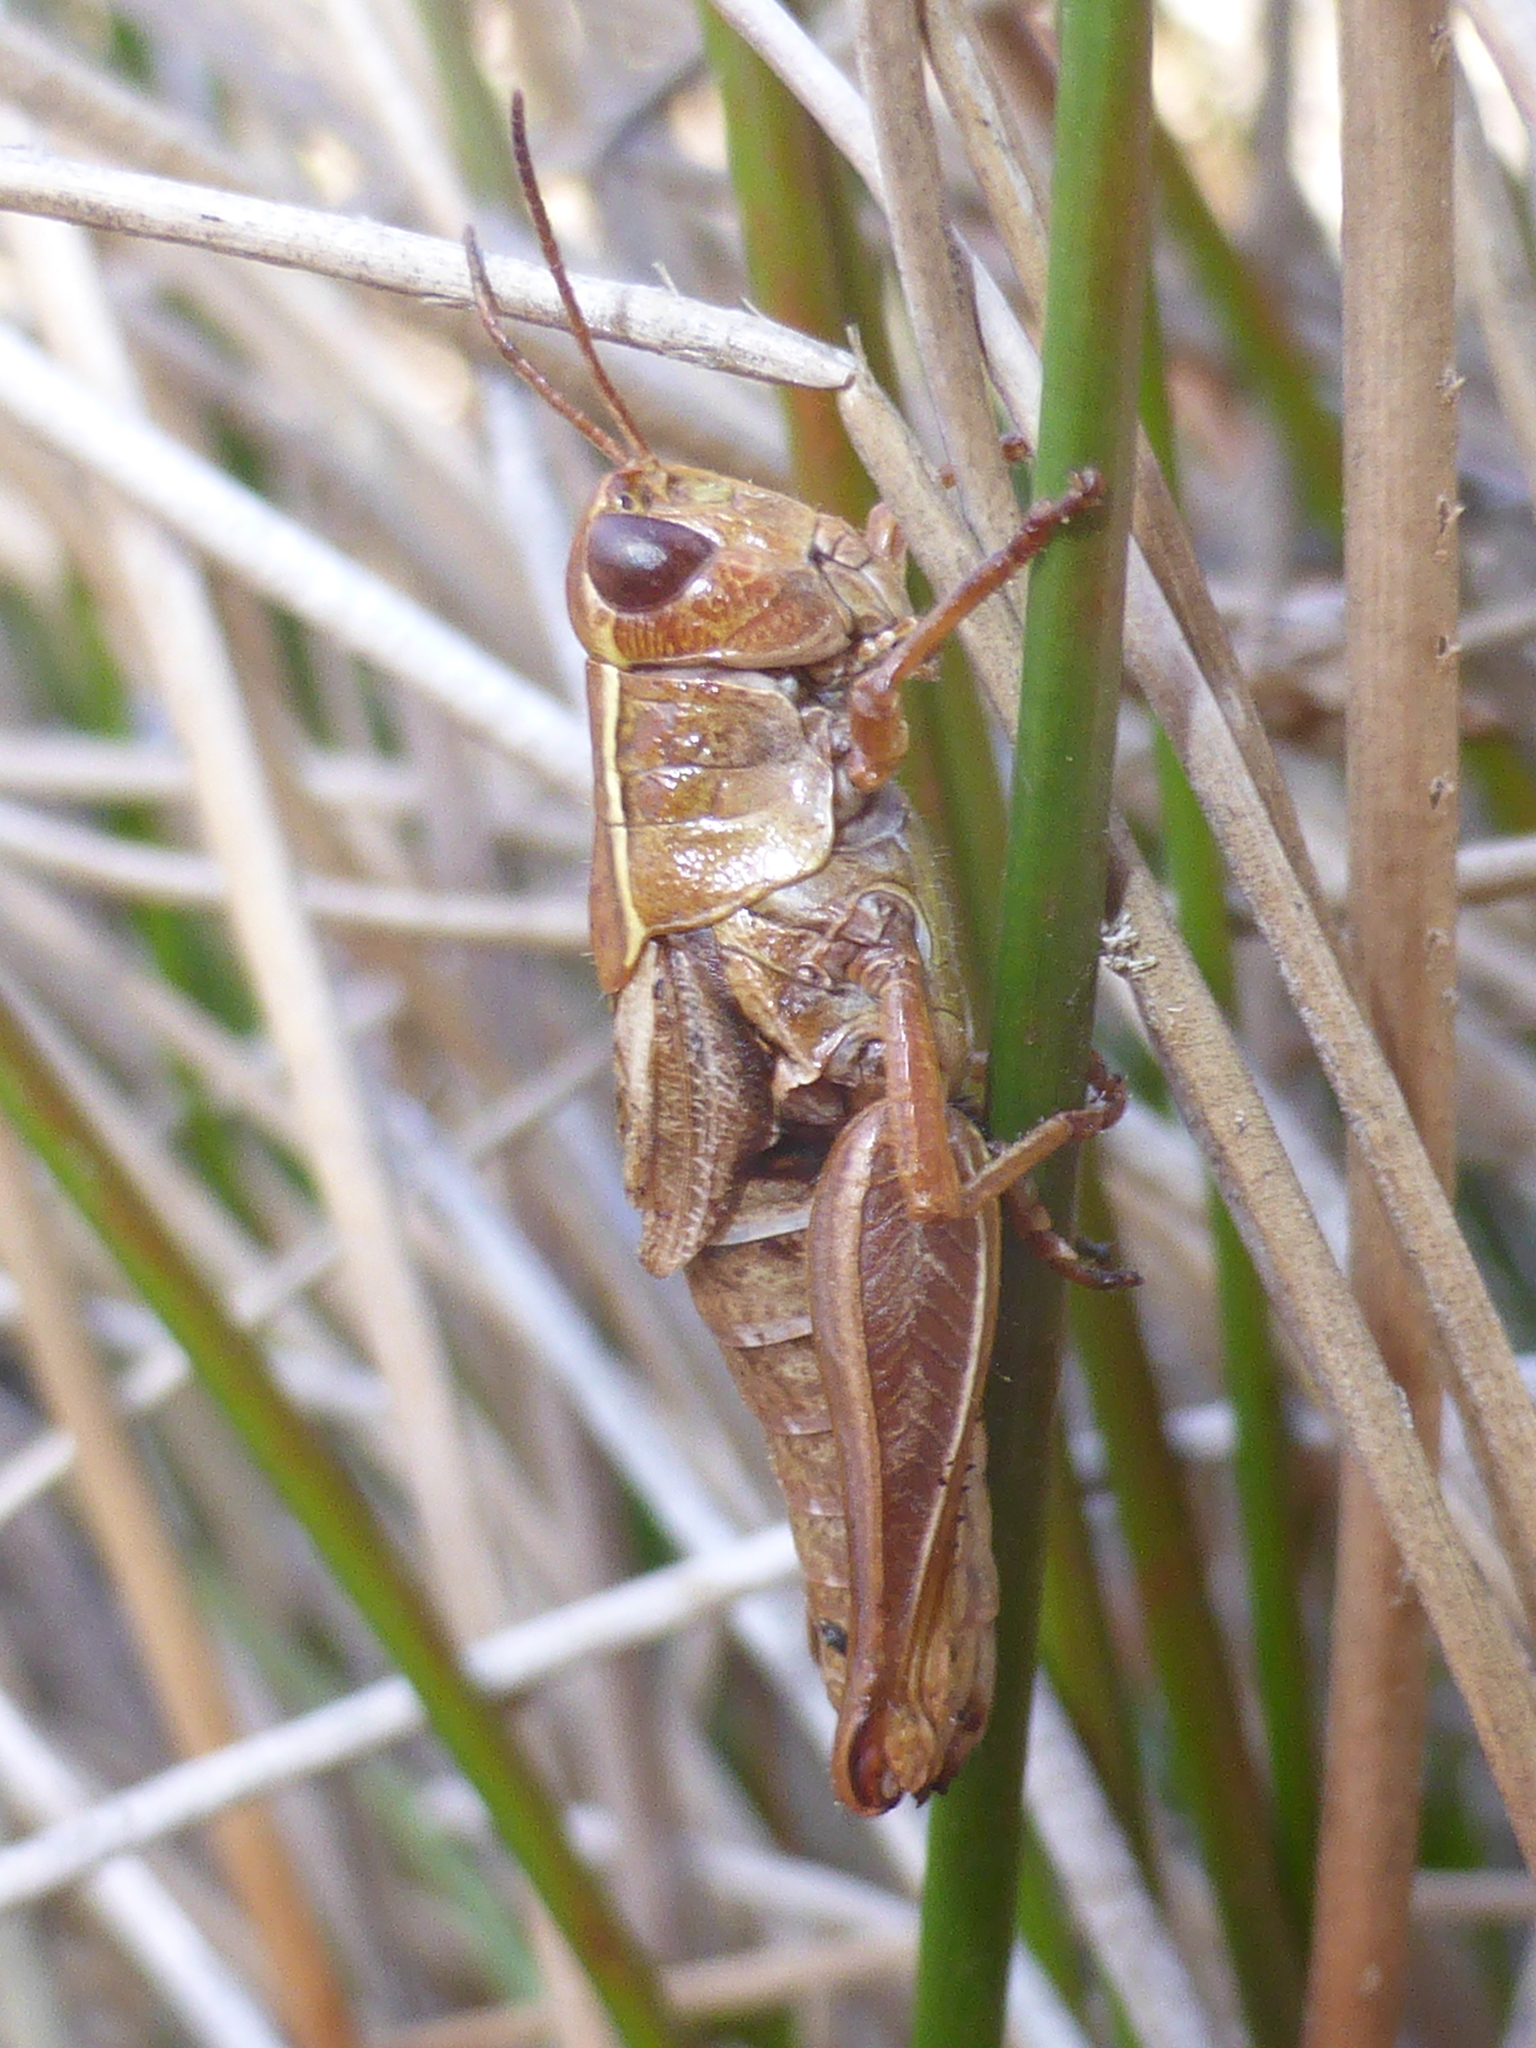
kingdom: Animalia
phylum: Arthropoda
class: Insecta
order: Orthoptera
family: Acrididae
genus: Phaulacridium
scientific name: Phaulacridium marginale
